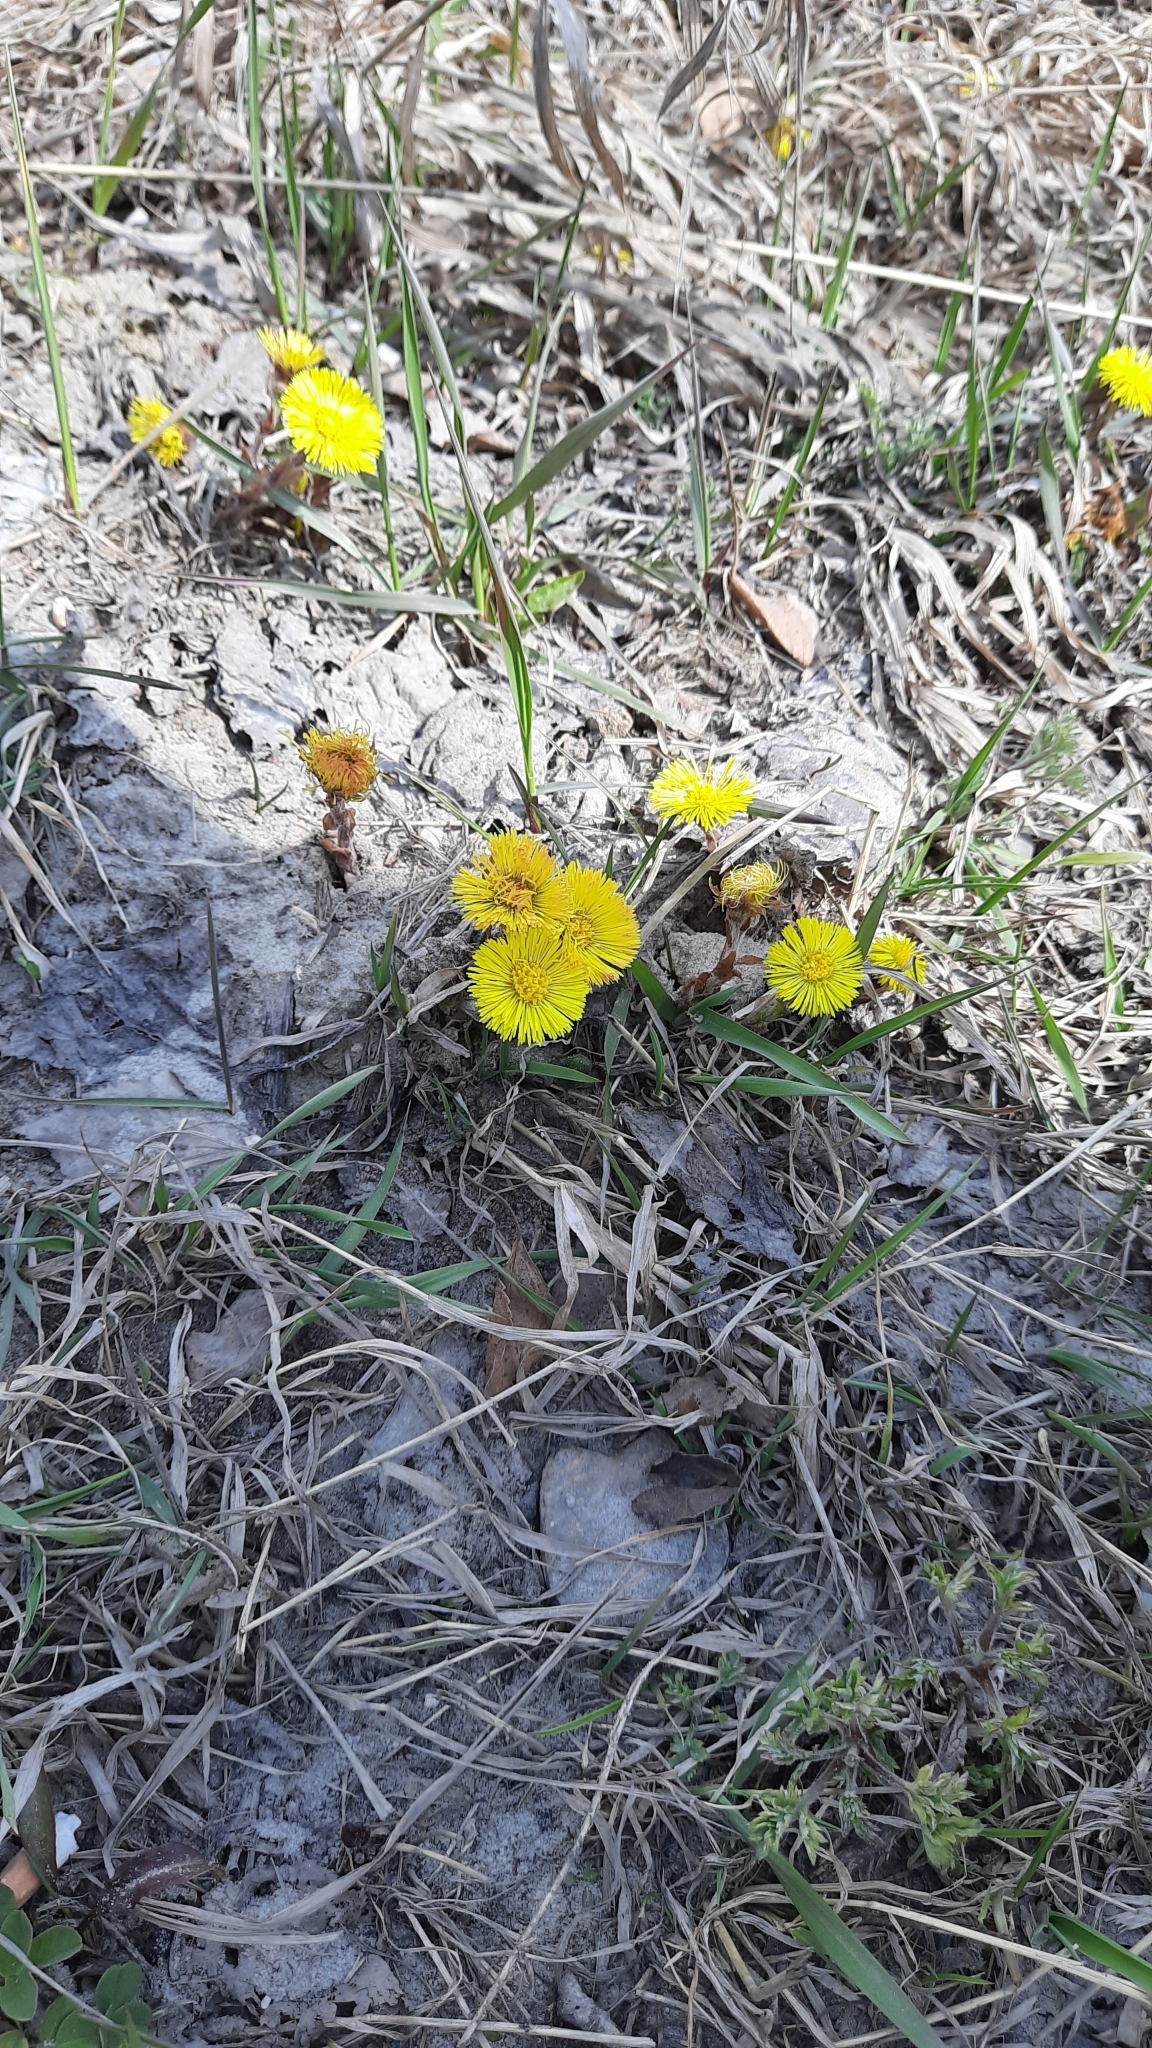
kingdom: Plantae
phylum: Tracheophyta
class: Magnoliopsida
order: Asterales
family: Asteraceae
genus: Tussilago
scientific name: Tussilago farfara
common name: Coltsfoot
